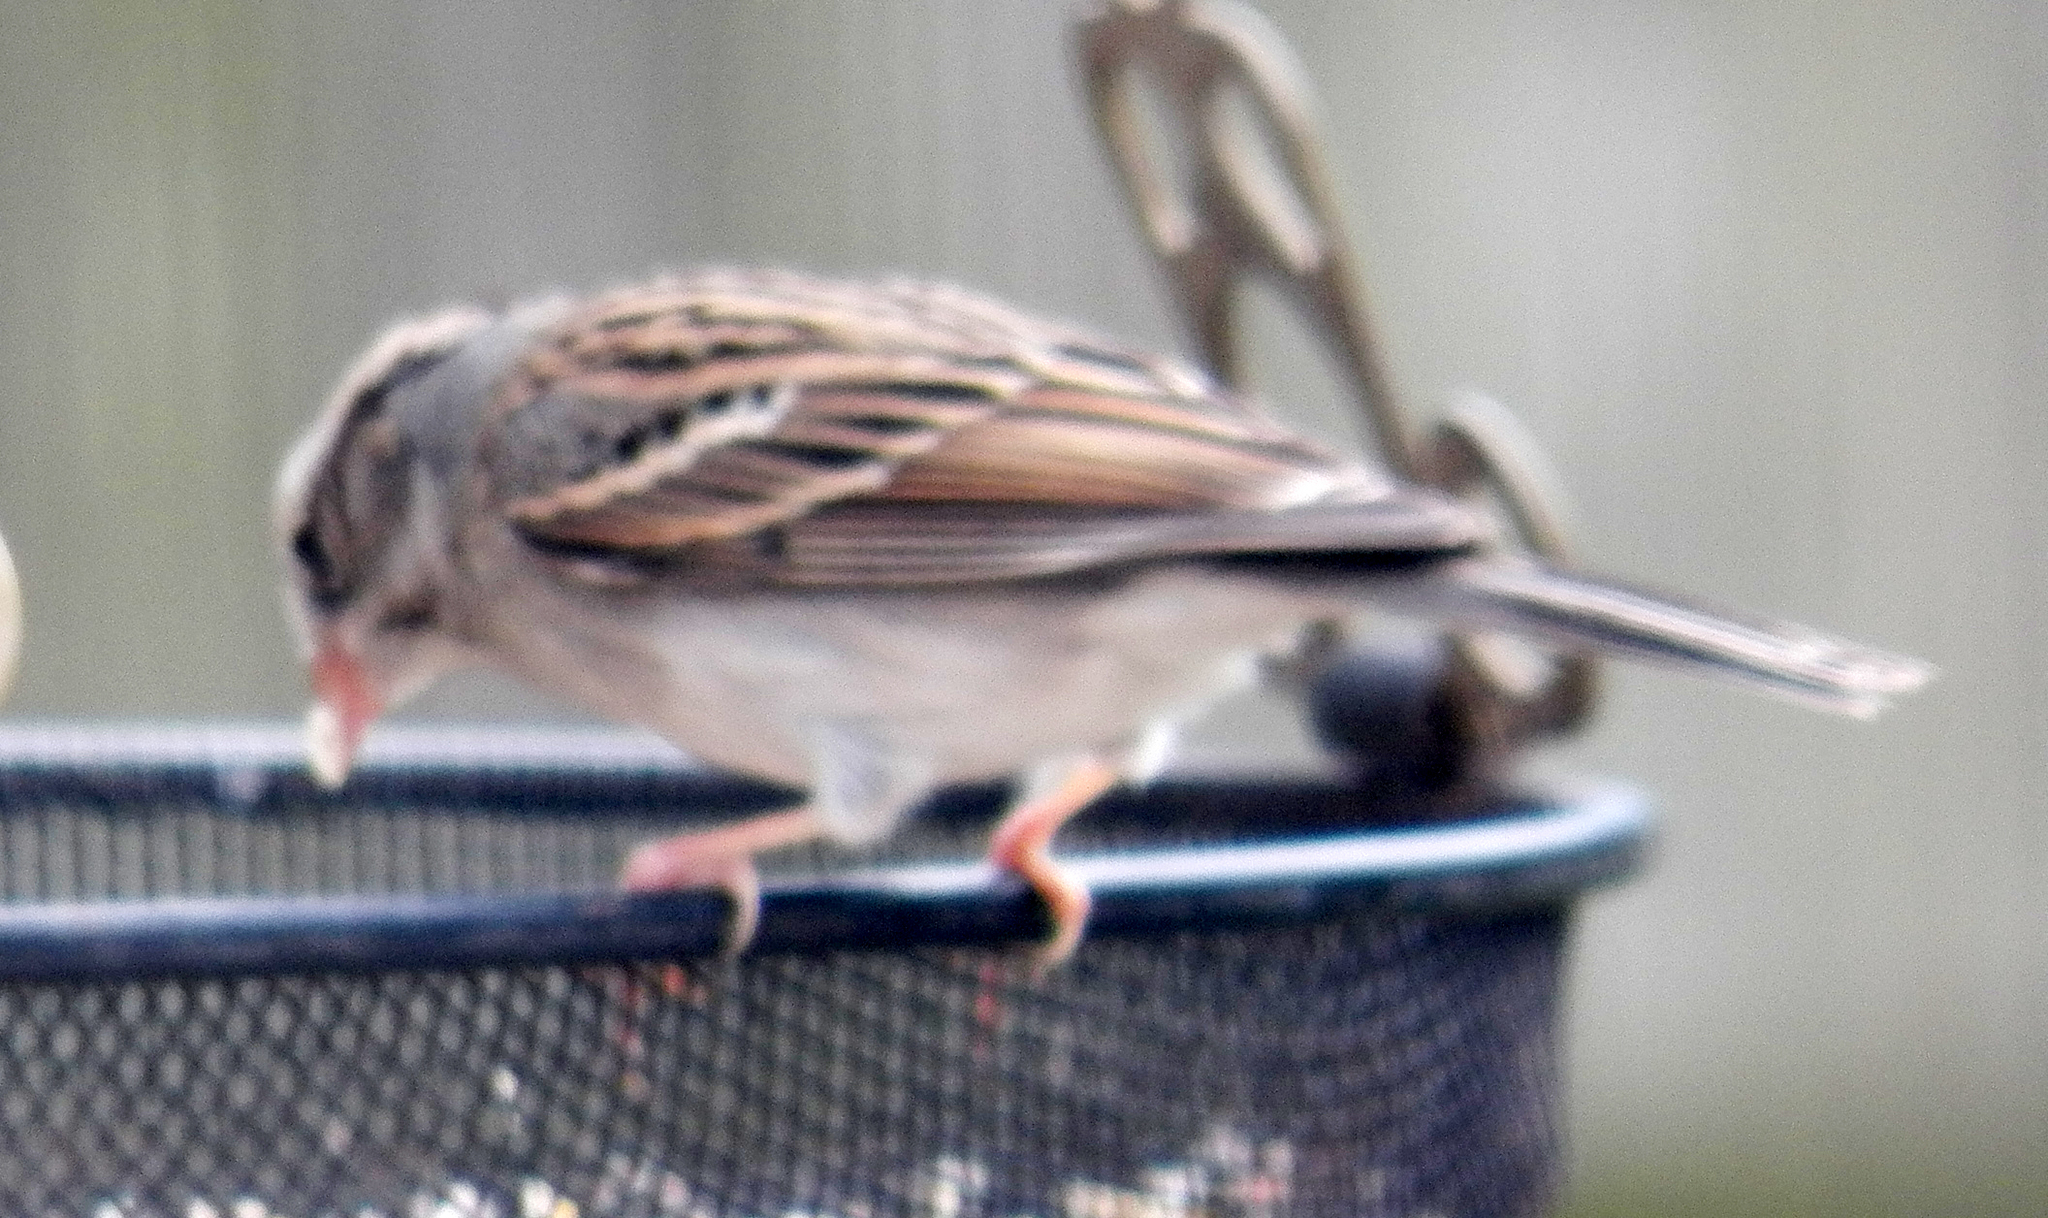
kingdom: Animalia
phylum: Chordata
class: Aves
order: Passeriformes
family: Passerellidae
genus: Spizella
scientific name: Spizella passerina
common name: Chipping sparrow
